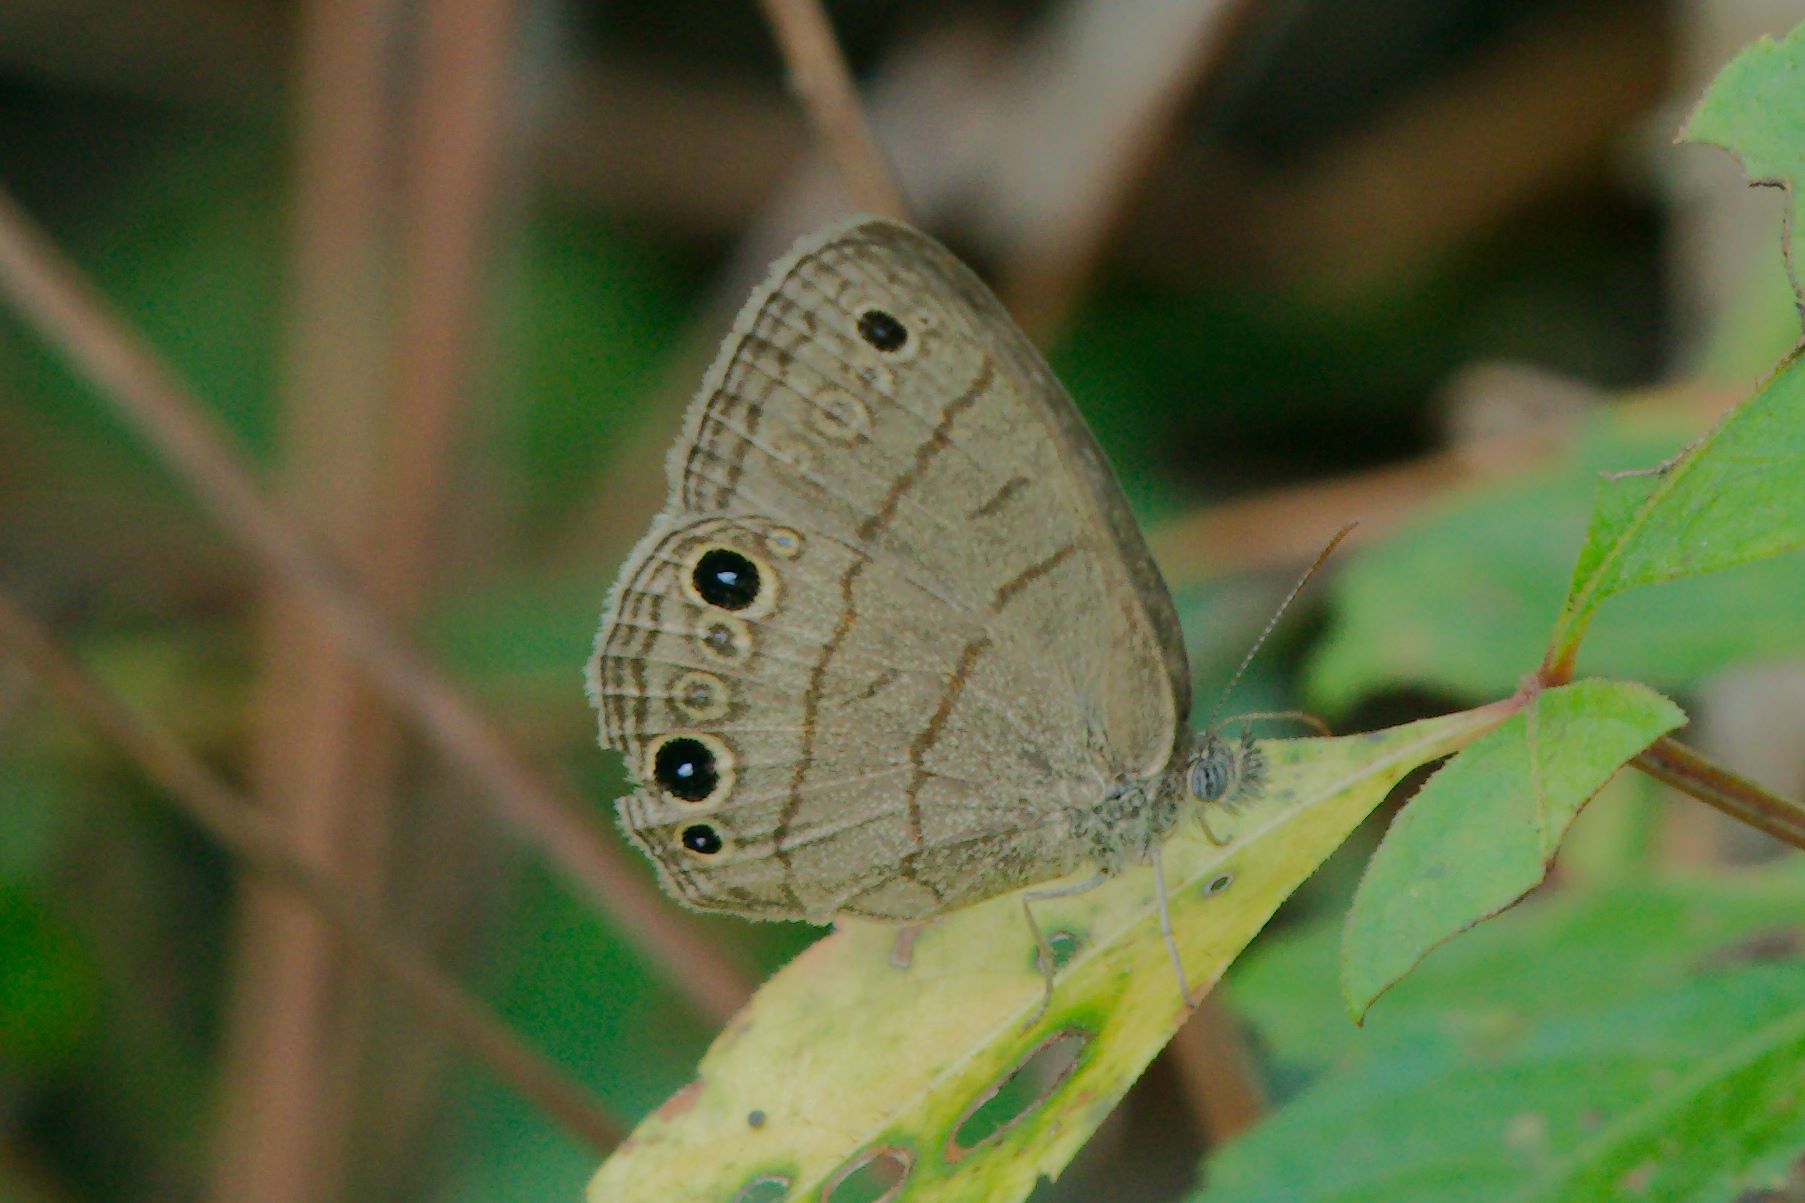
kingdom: Animalia
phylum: Arthropoda
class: Insecta
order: Lepidoptera
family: Nymphalidae
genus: Hermeuptychia
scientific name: Hermeuptychia hermes
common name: Hermes satyr
